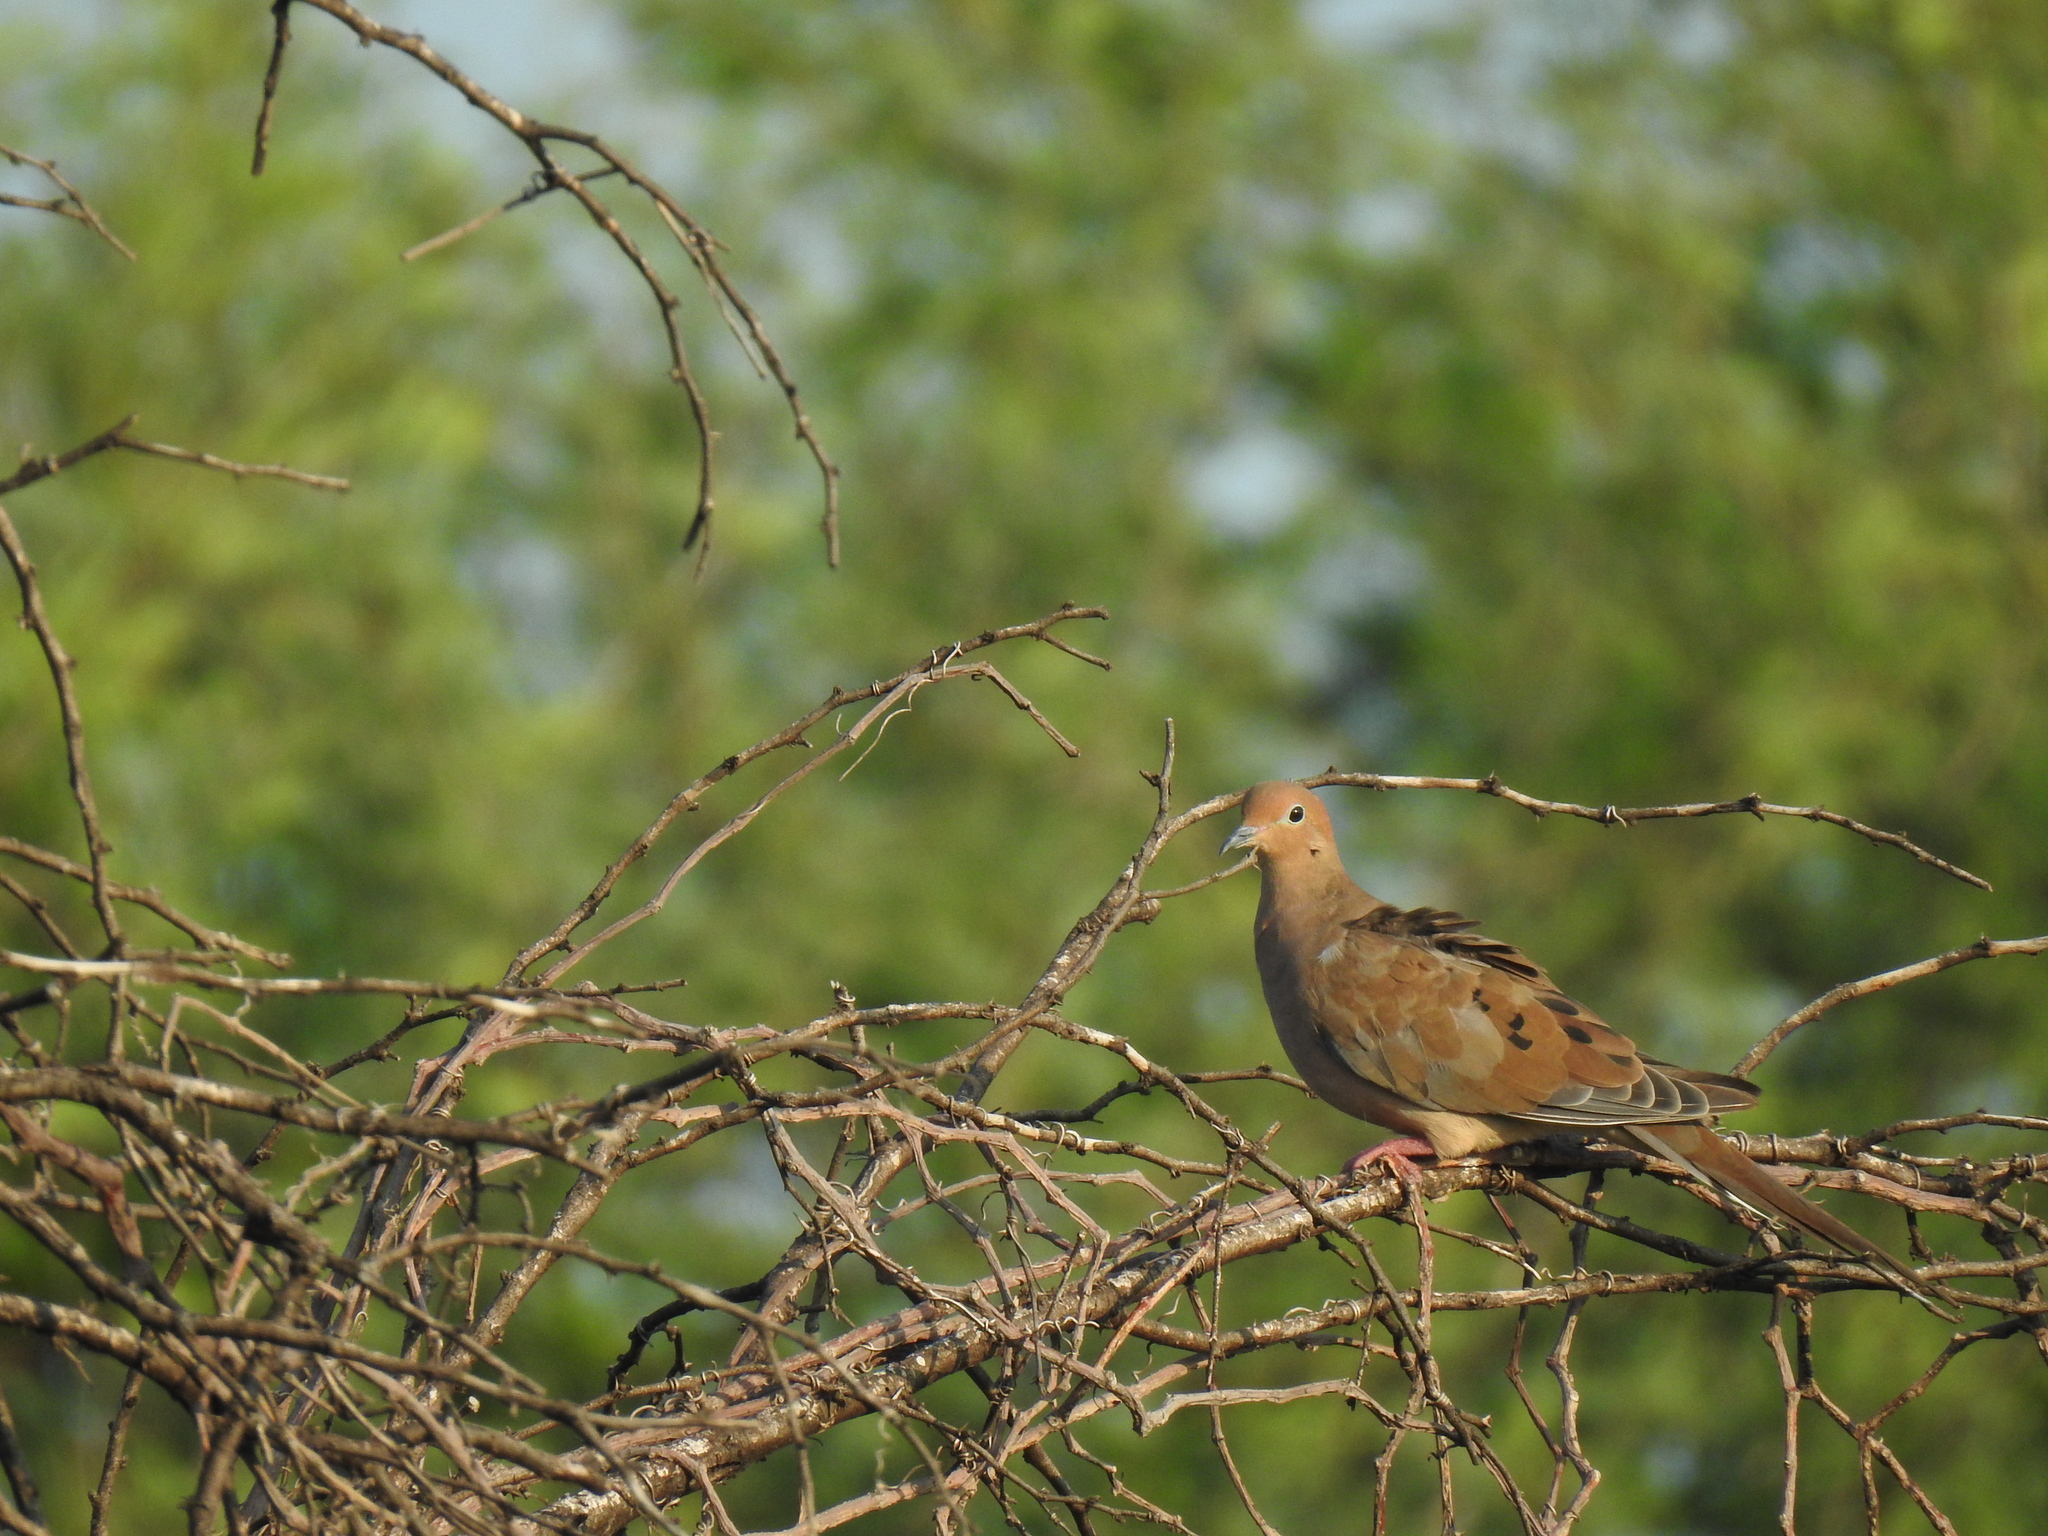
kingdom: Animalia
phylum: Chordata
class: Aves
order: Columbiformes
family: Columbidae
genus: Zenaida
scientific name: Zenaida macroura
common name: Mourning dove
